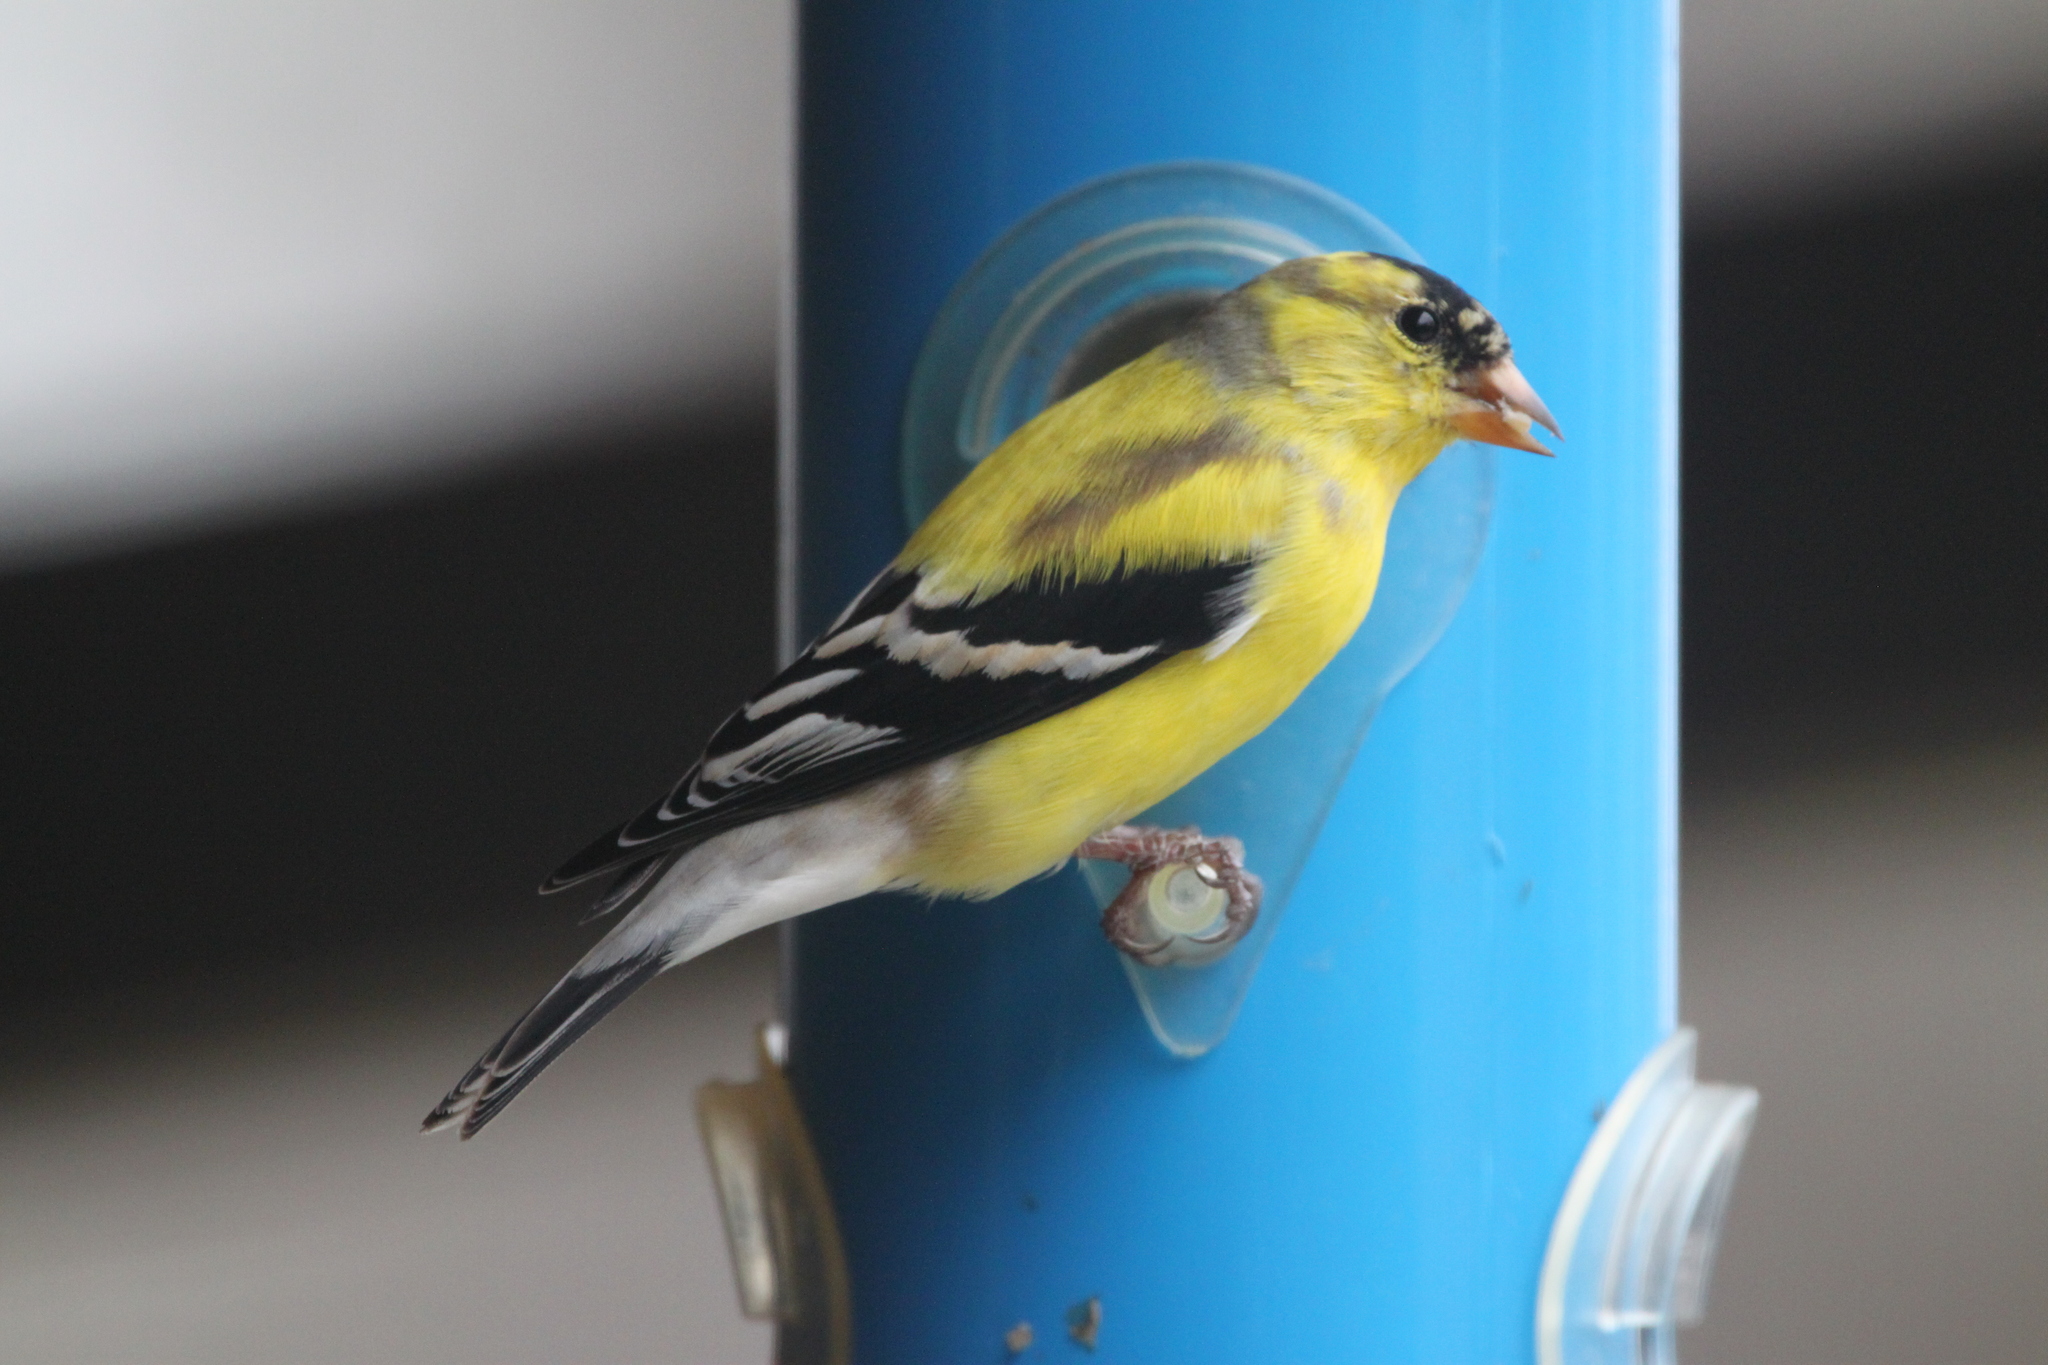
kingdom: Animalia
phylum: Chordata
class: Aves
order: Passeriformes
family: Fringillidae
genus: Spinus
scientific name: Spinus tristis
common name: American goldfinch
